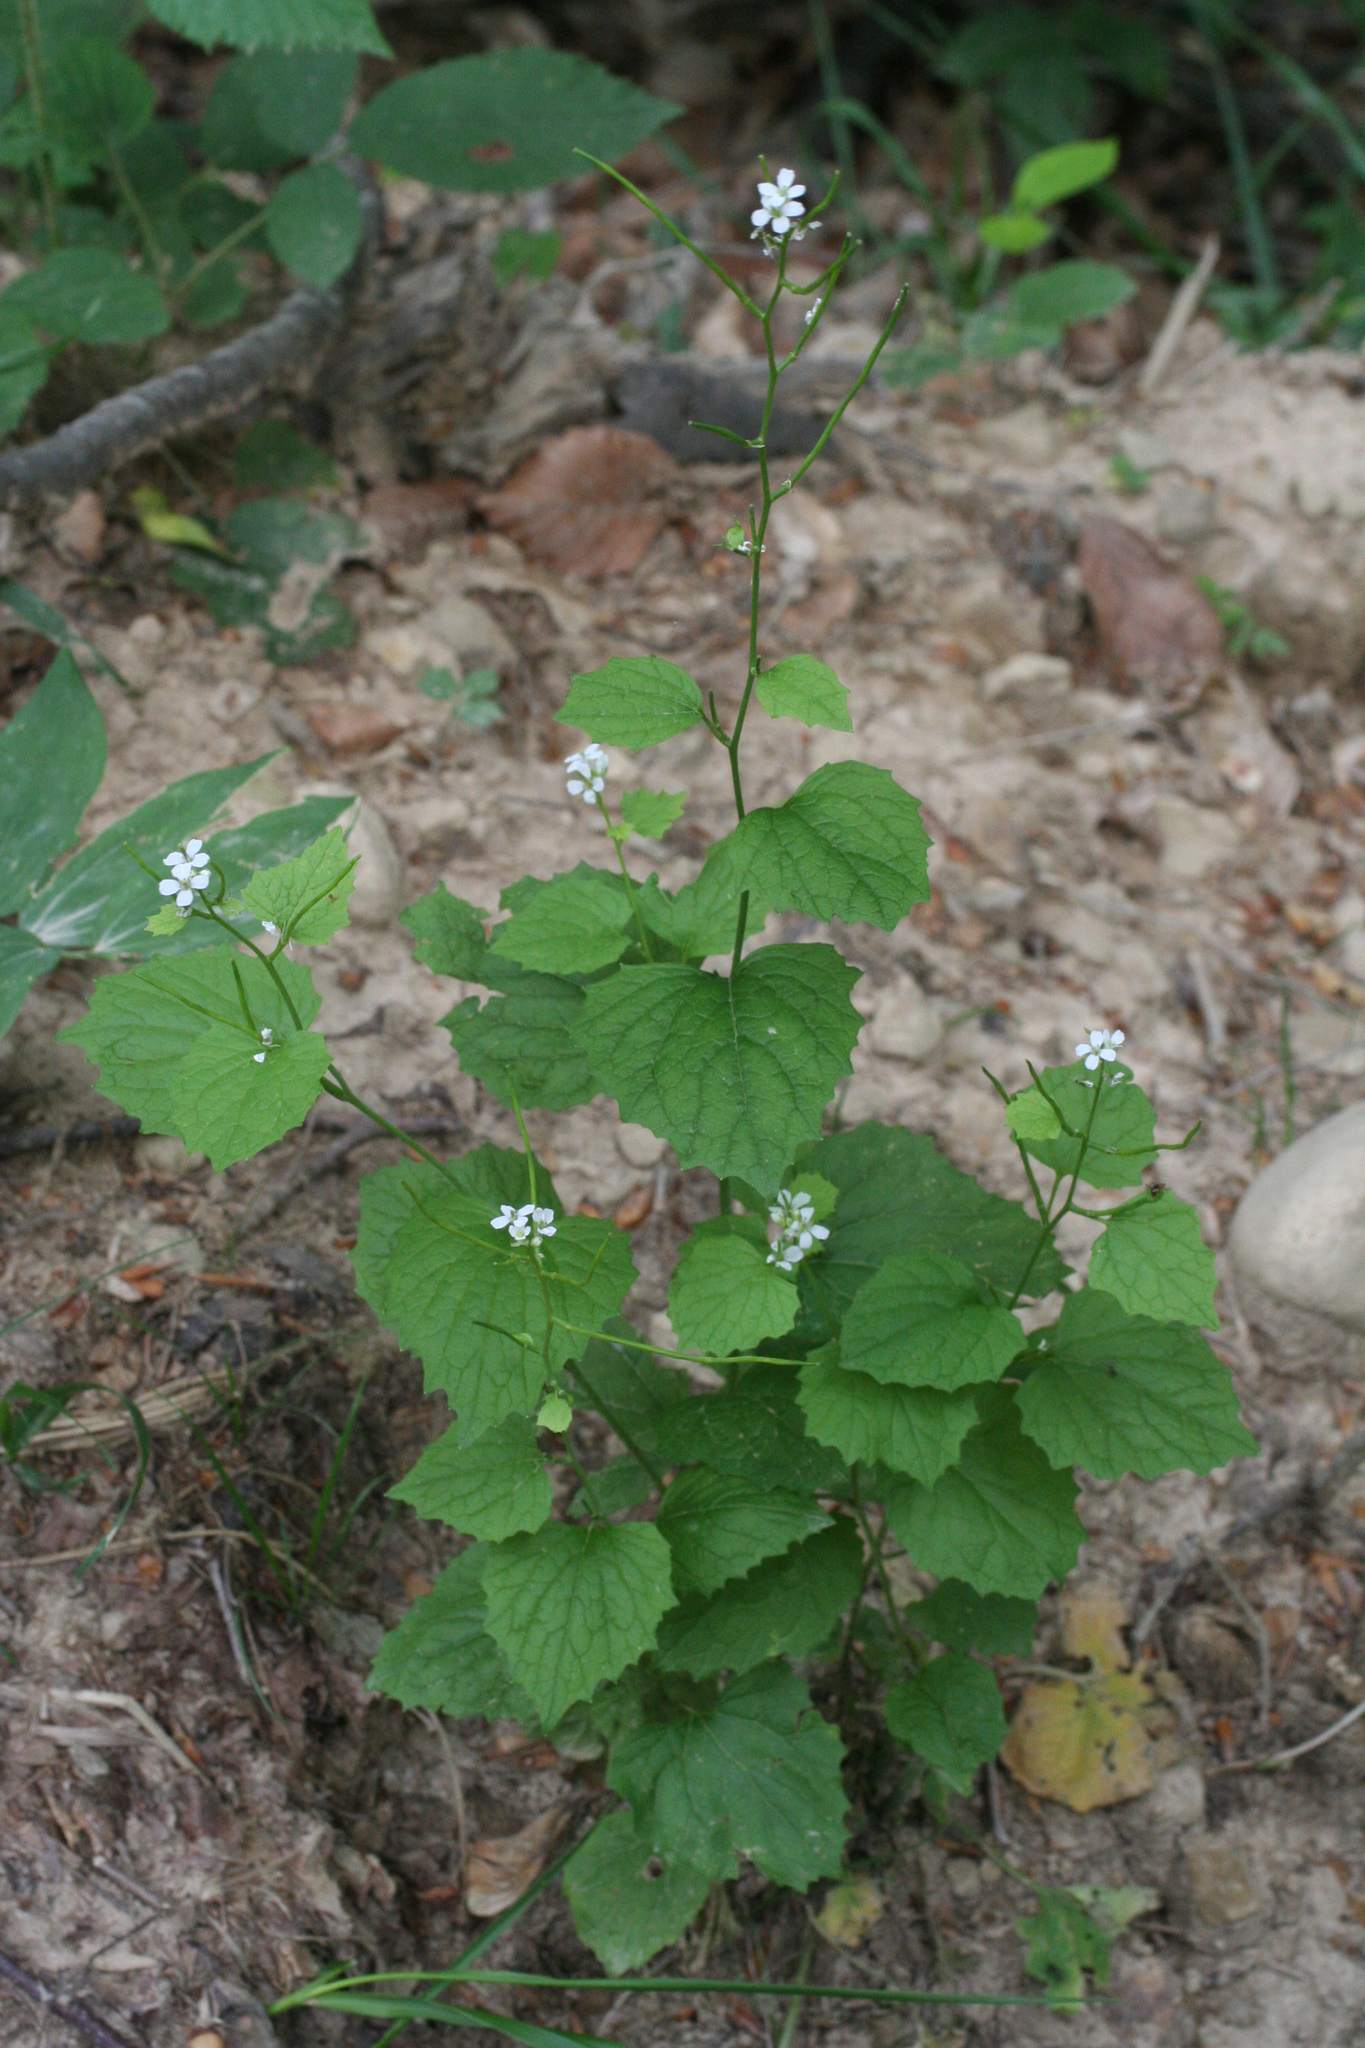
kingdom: Plantae
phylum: Tracheophyta
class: Magnoliopsida
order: Brassicales
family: Brassicaceae
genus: Alliaria
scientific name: Alliaria petiolata
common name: Garlic mustard
